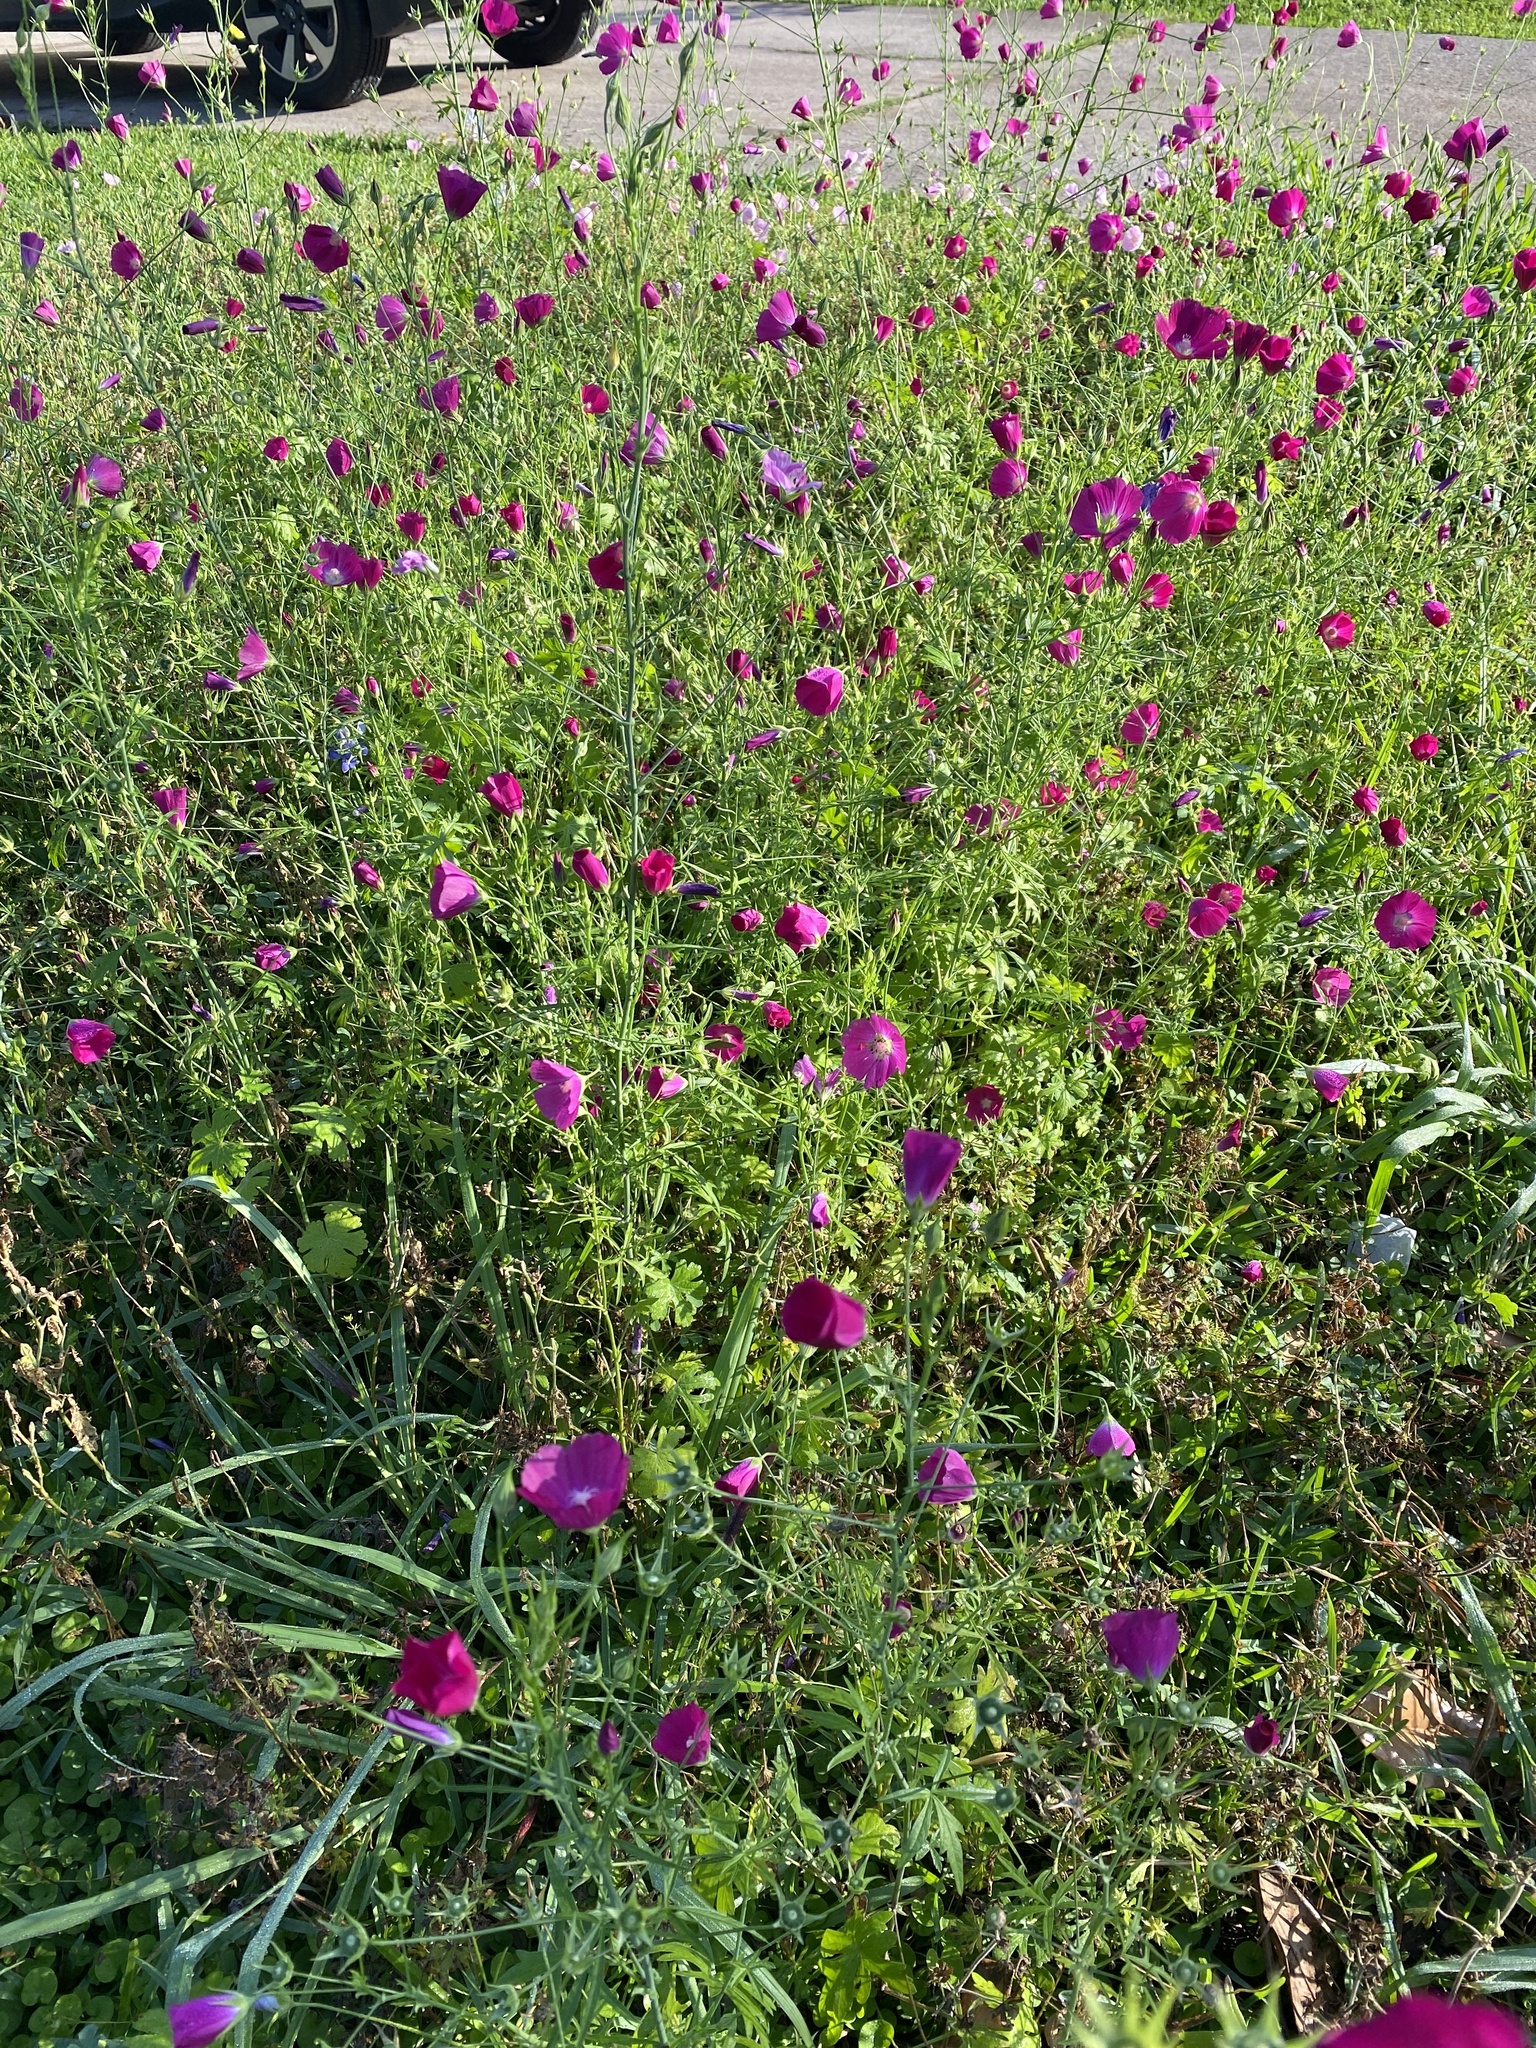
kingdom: Plantae
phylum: Tracheophyta
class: Magnoliopsida
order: Malvales
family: Malvaceae
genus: Callirhoe
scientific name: Callirhoe leiocarpa
